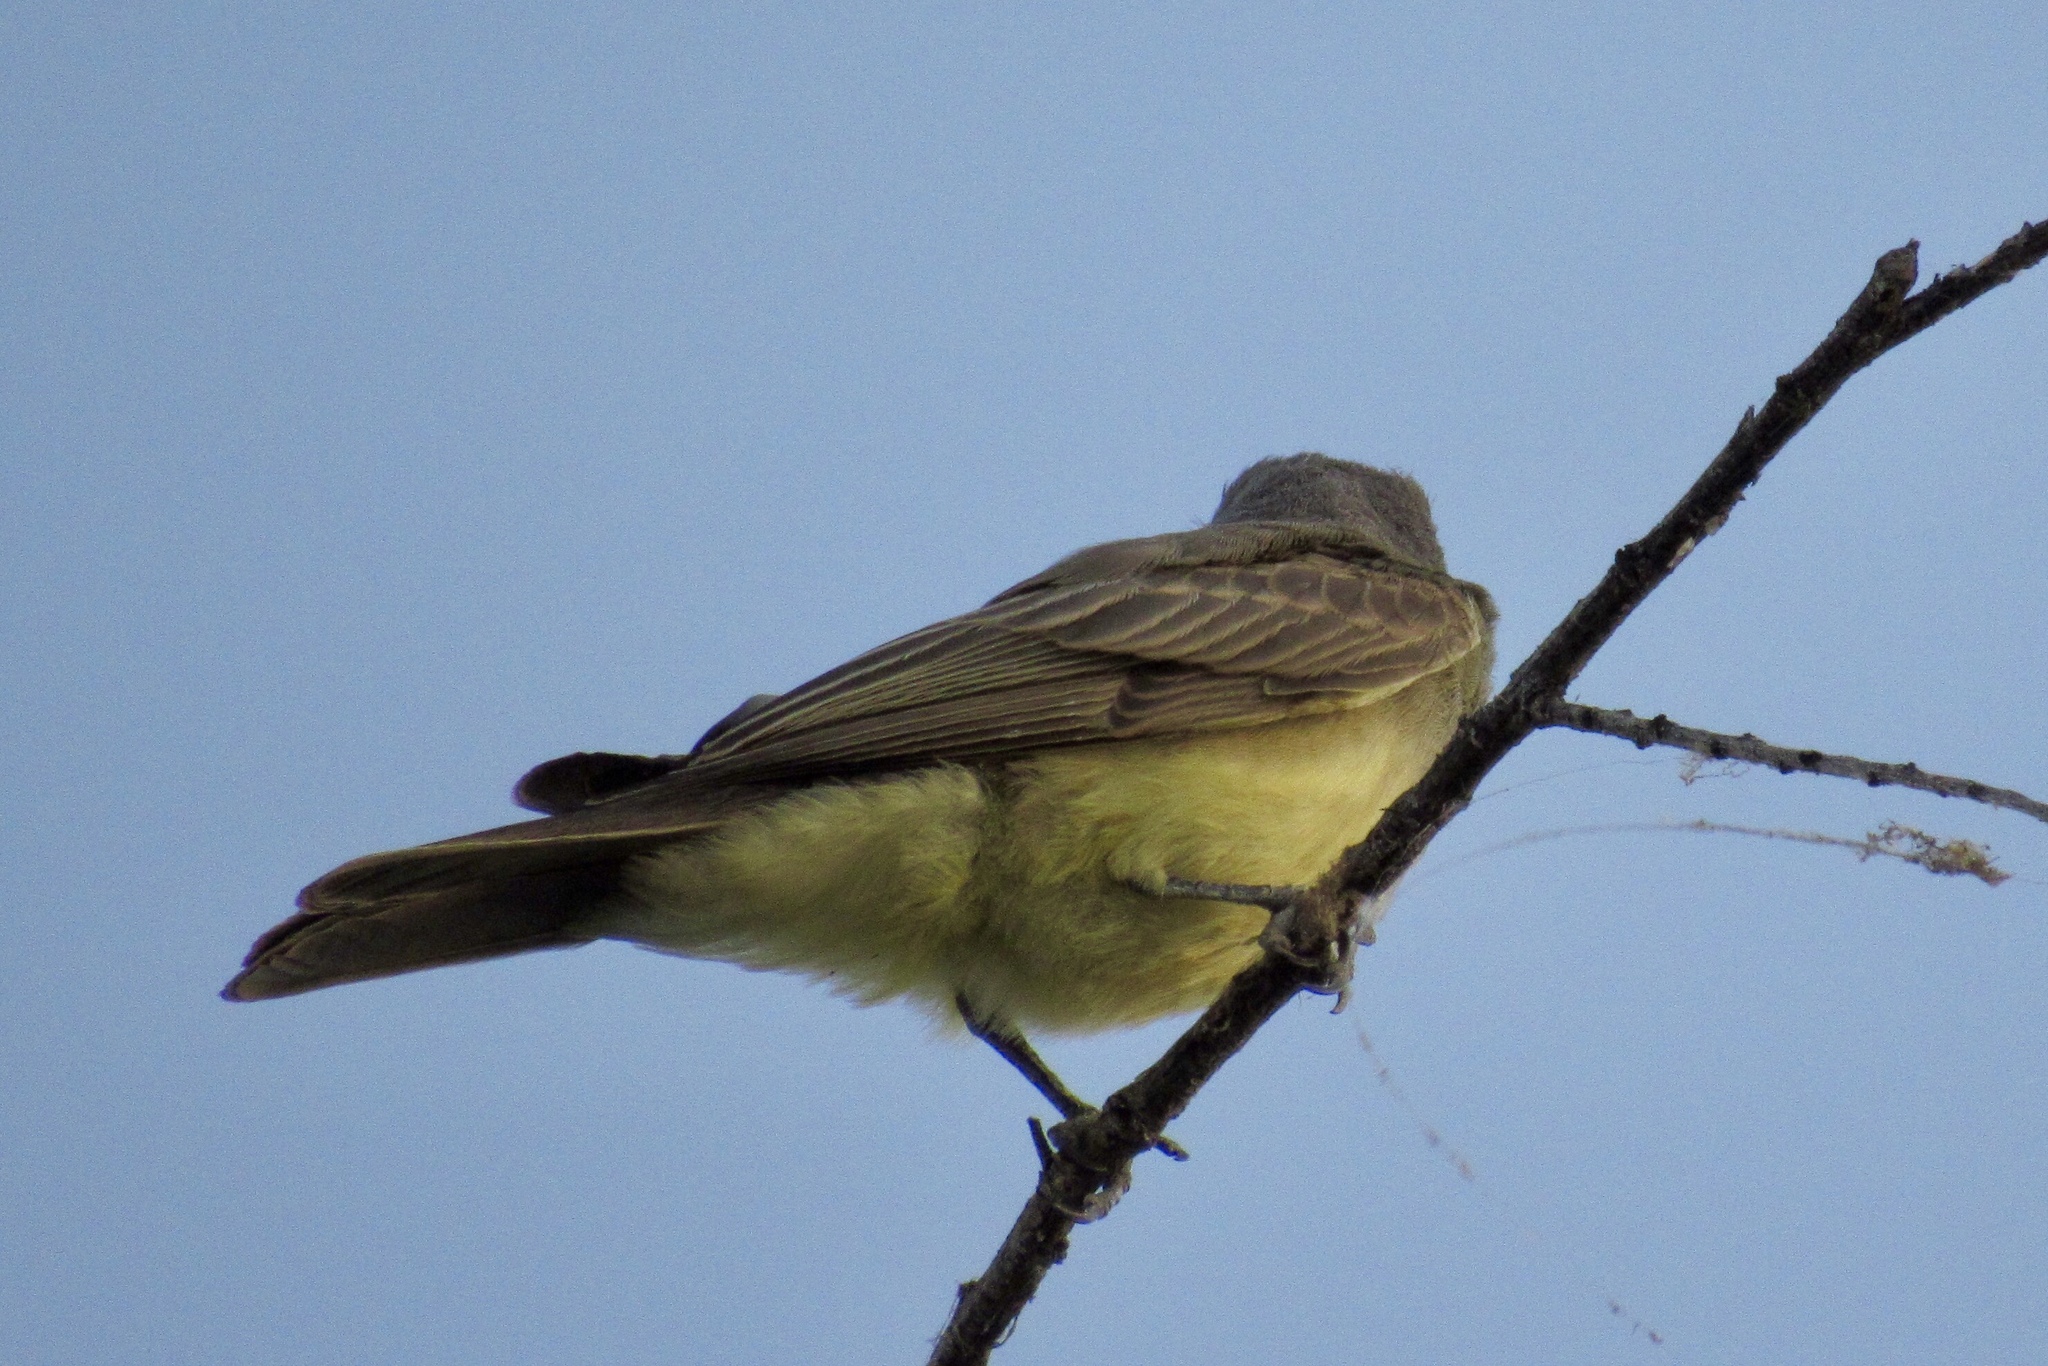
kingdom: Animalia
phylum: Chordata
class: Aves
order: Passeriformes
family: Tyrannidae
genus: Tyrannus
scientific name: Tyrannus vociferans
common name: Cassin's kingbird
